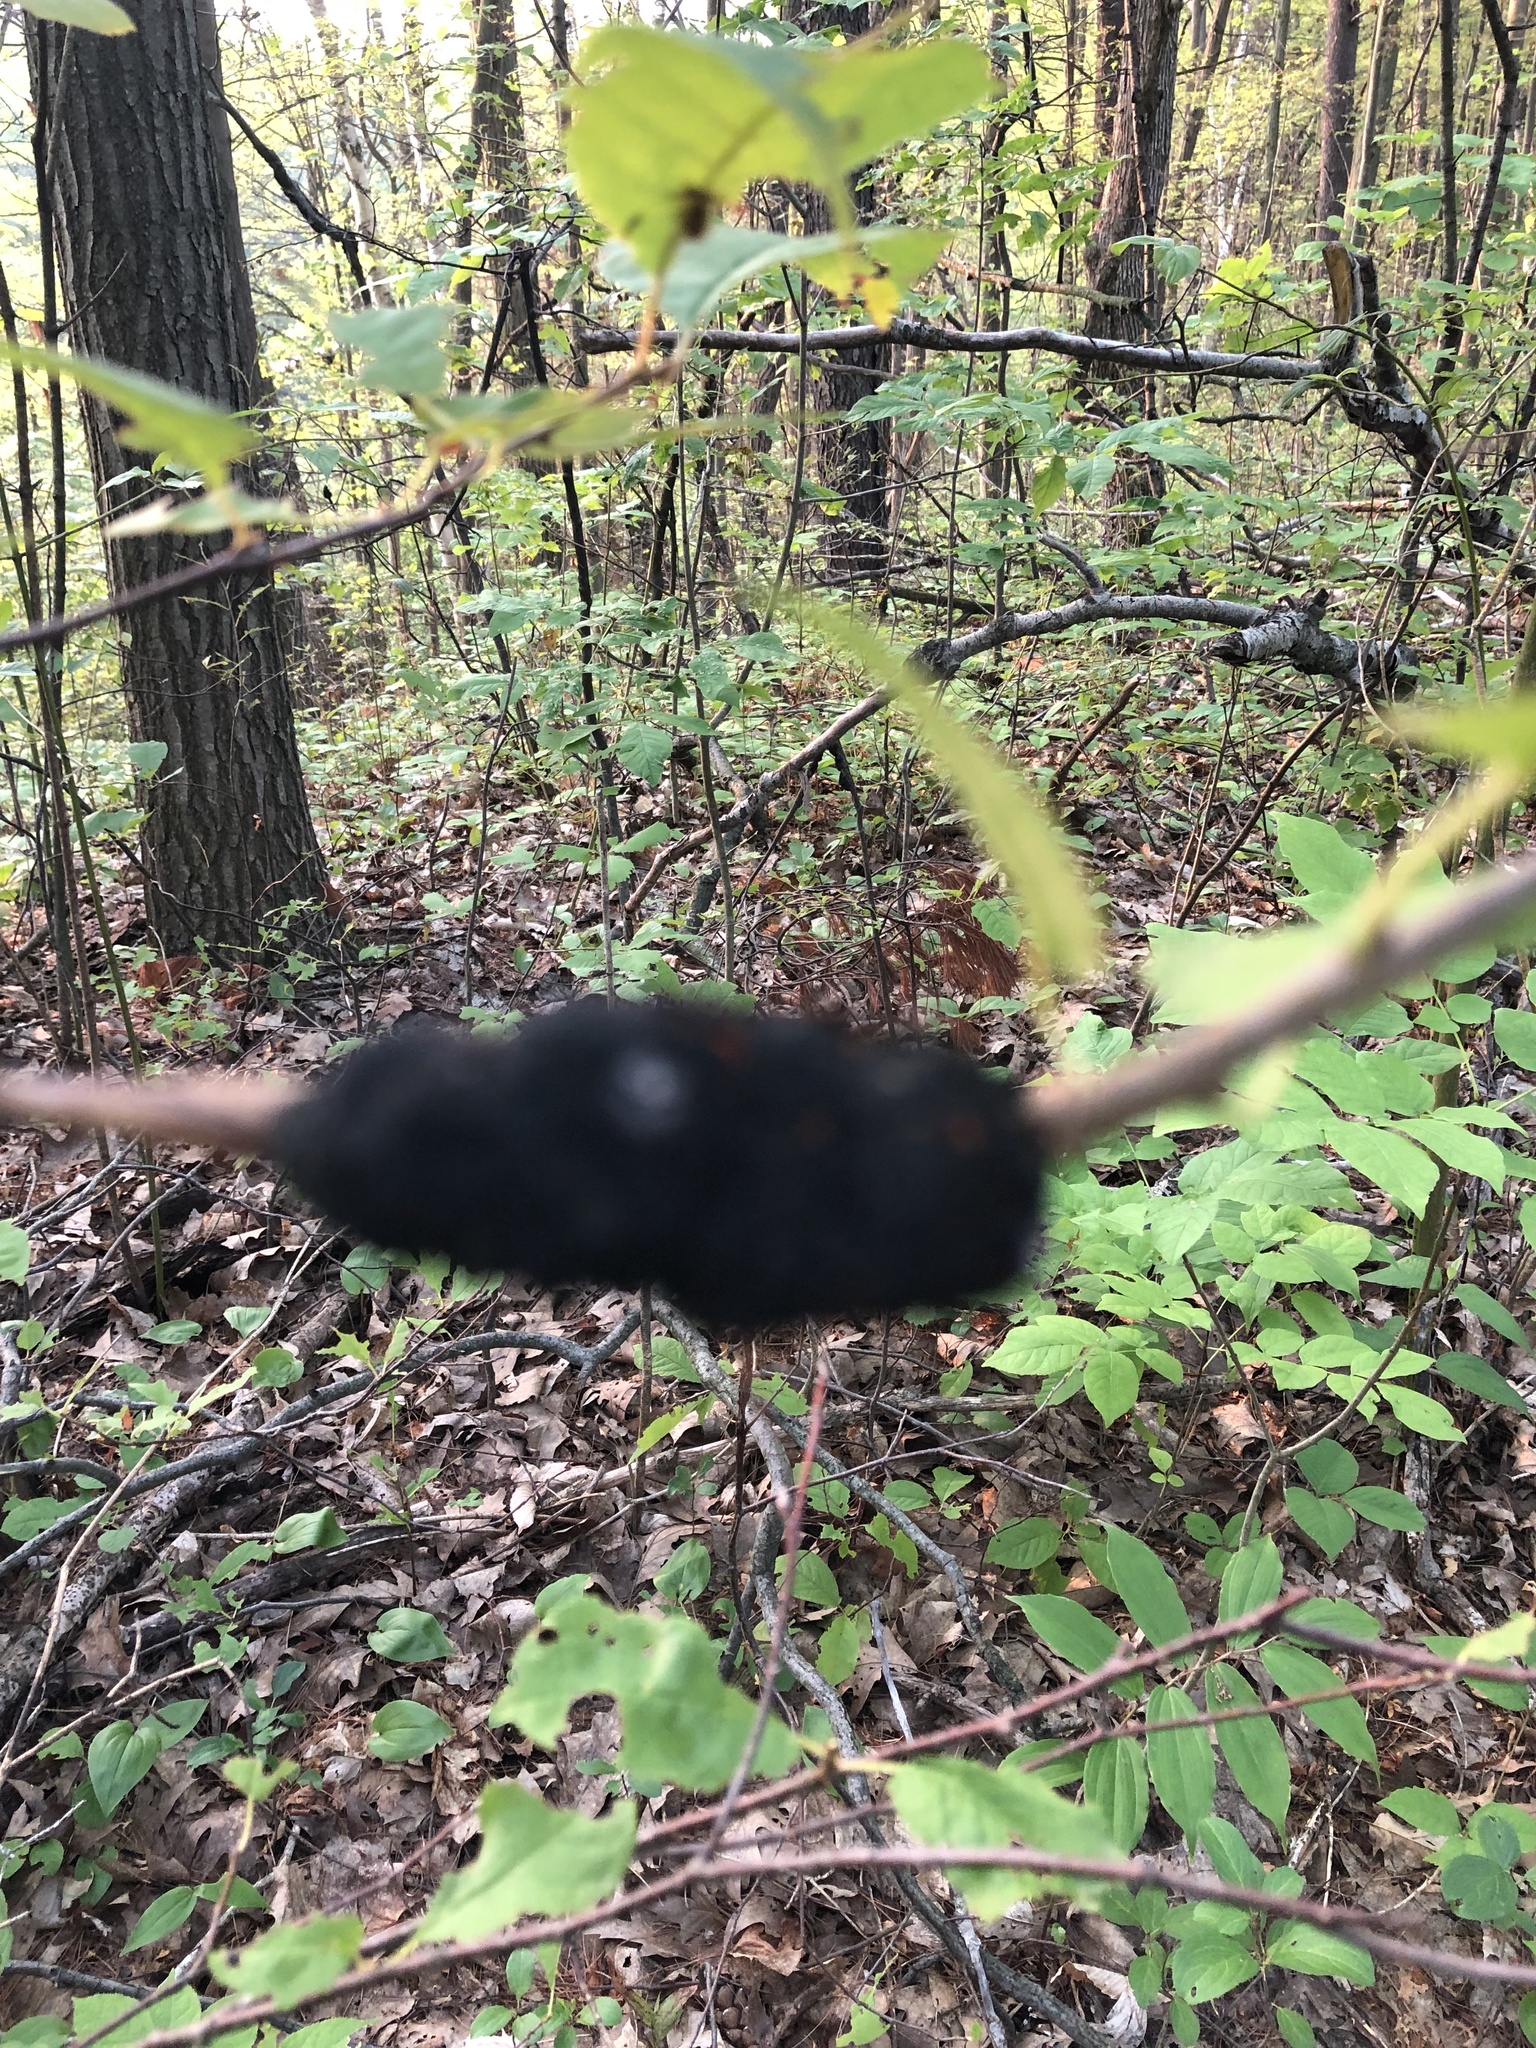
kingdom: Fungi
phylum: Ascomycota
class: Dothideomycetes
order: Venturiales
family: Venturiaceae
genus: Apiosporina
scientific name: Apiosporina morbosa
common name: Black knot
